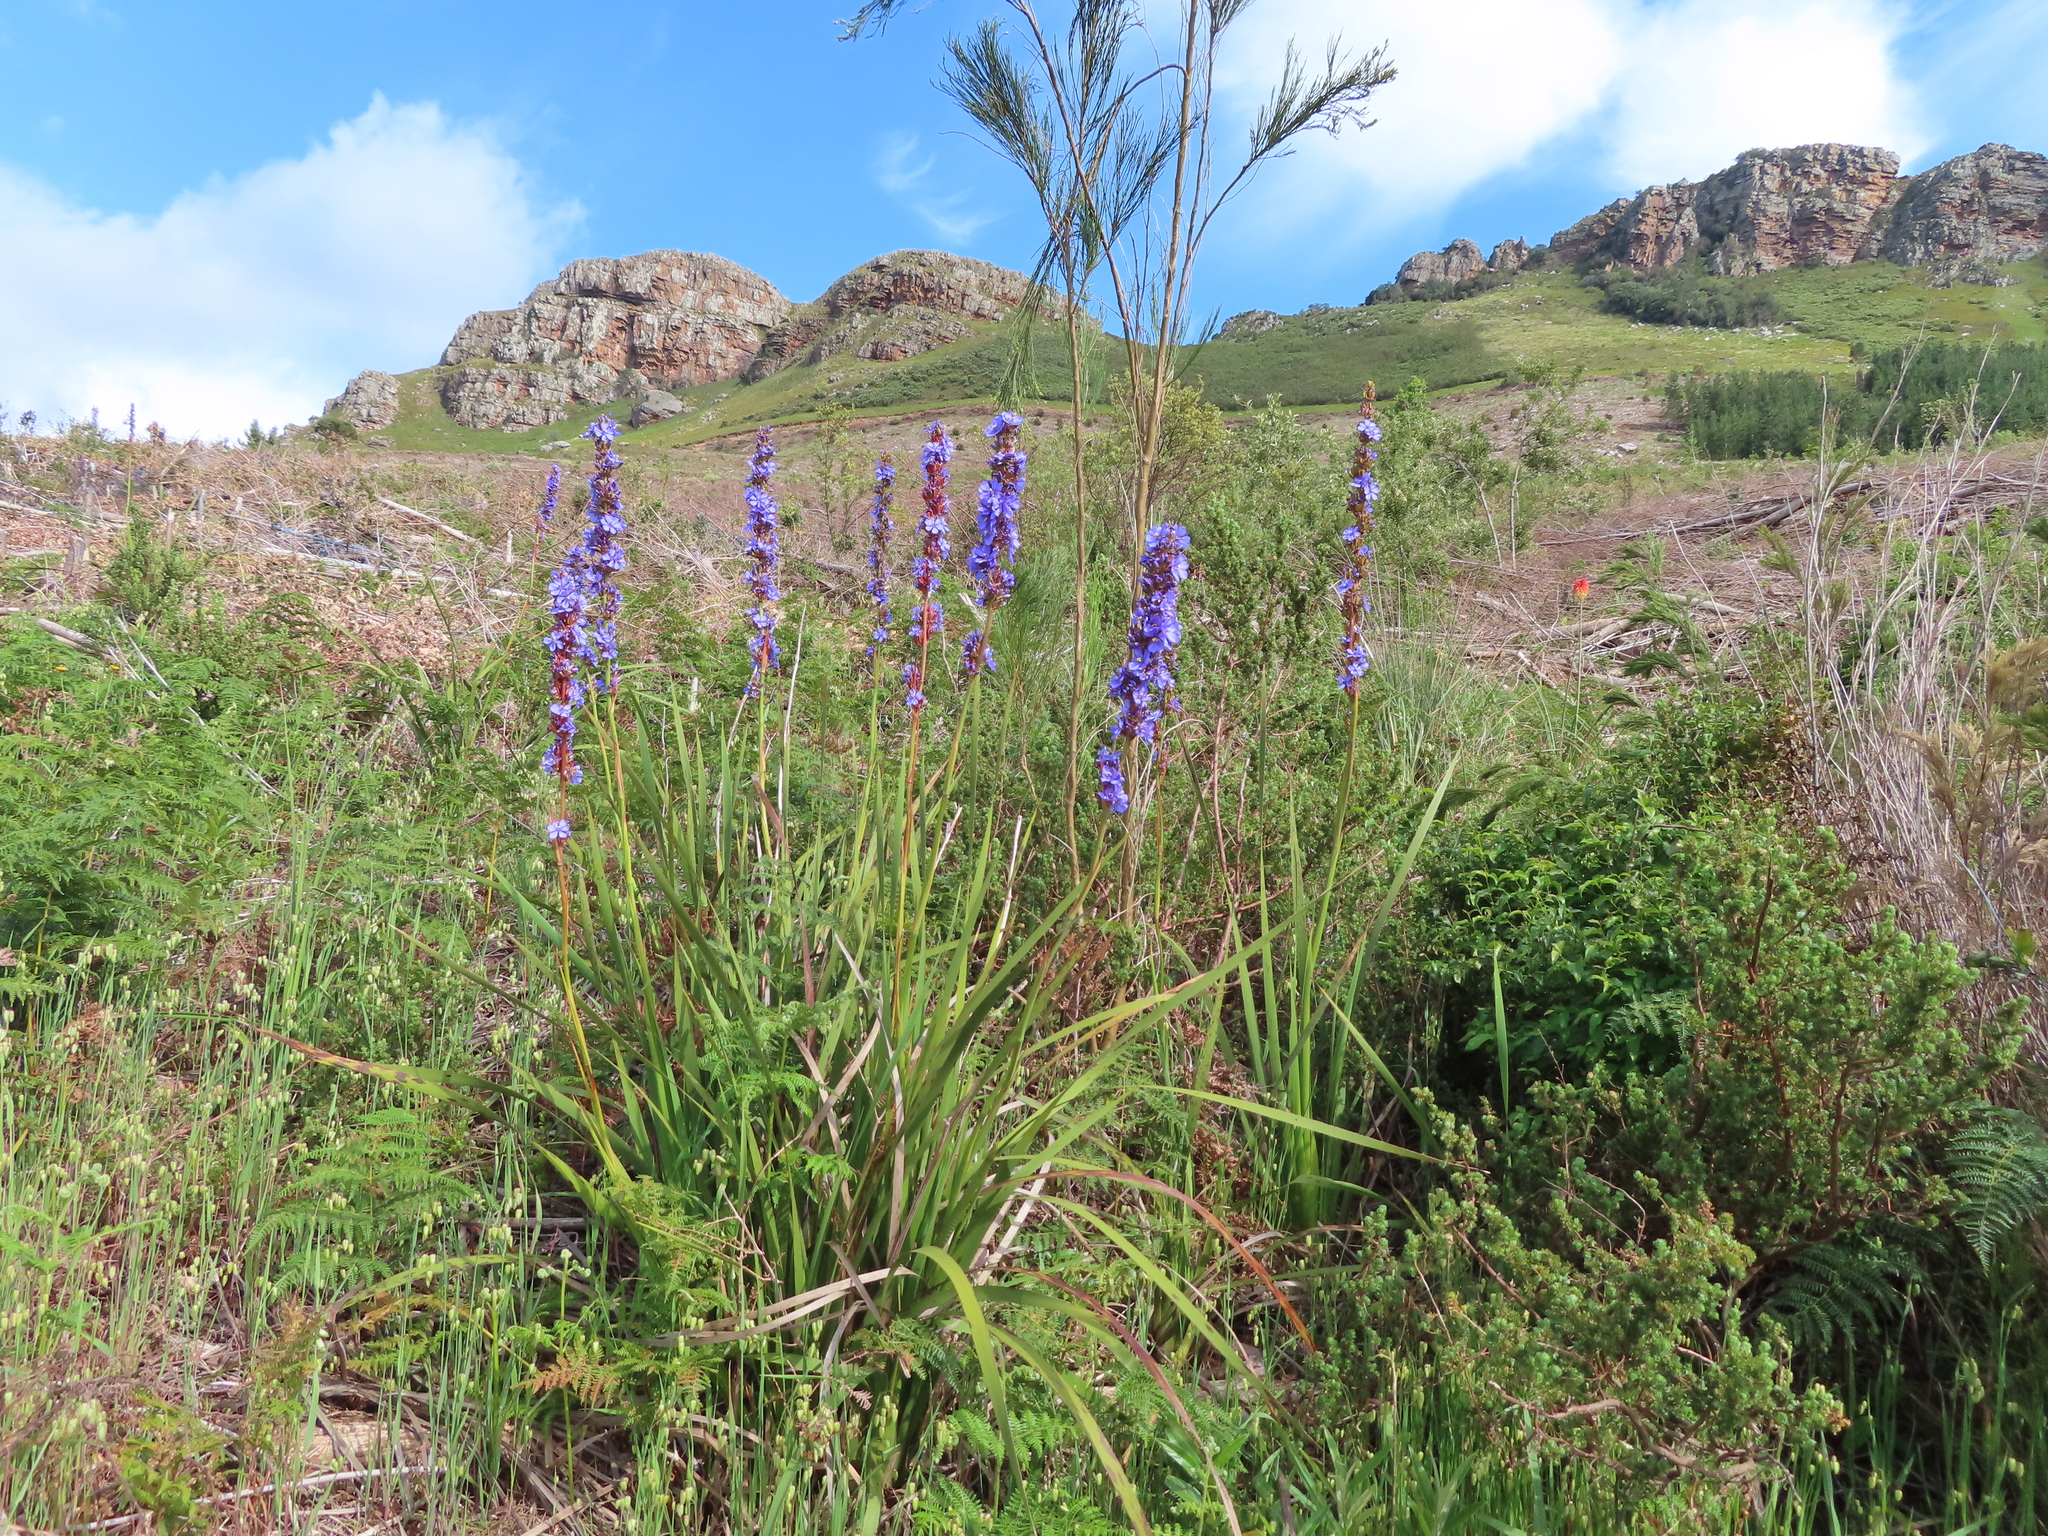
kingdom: Plantae
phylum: Tracheophyta
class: Liliopsida
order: Asparagales
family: Iridaceae
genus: Aristea
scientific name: Aristea capitata
